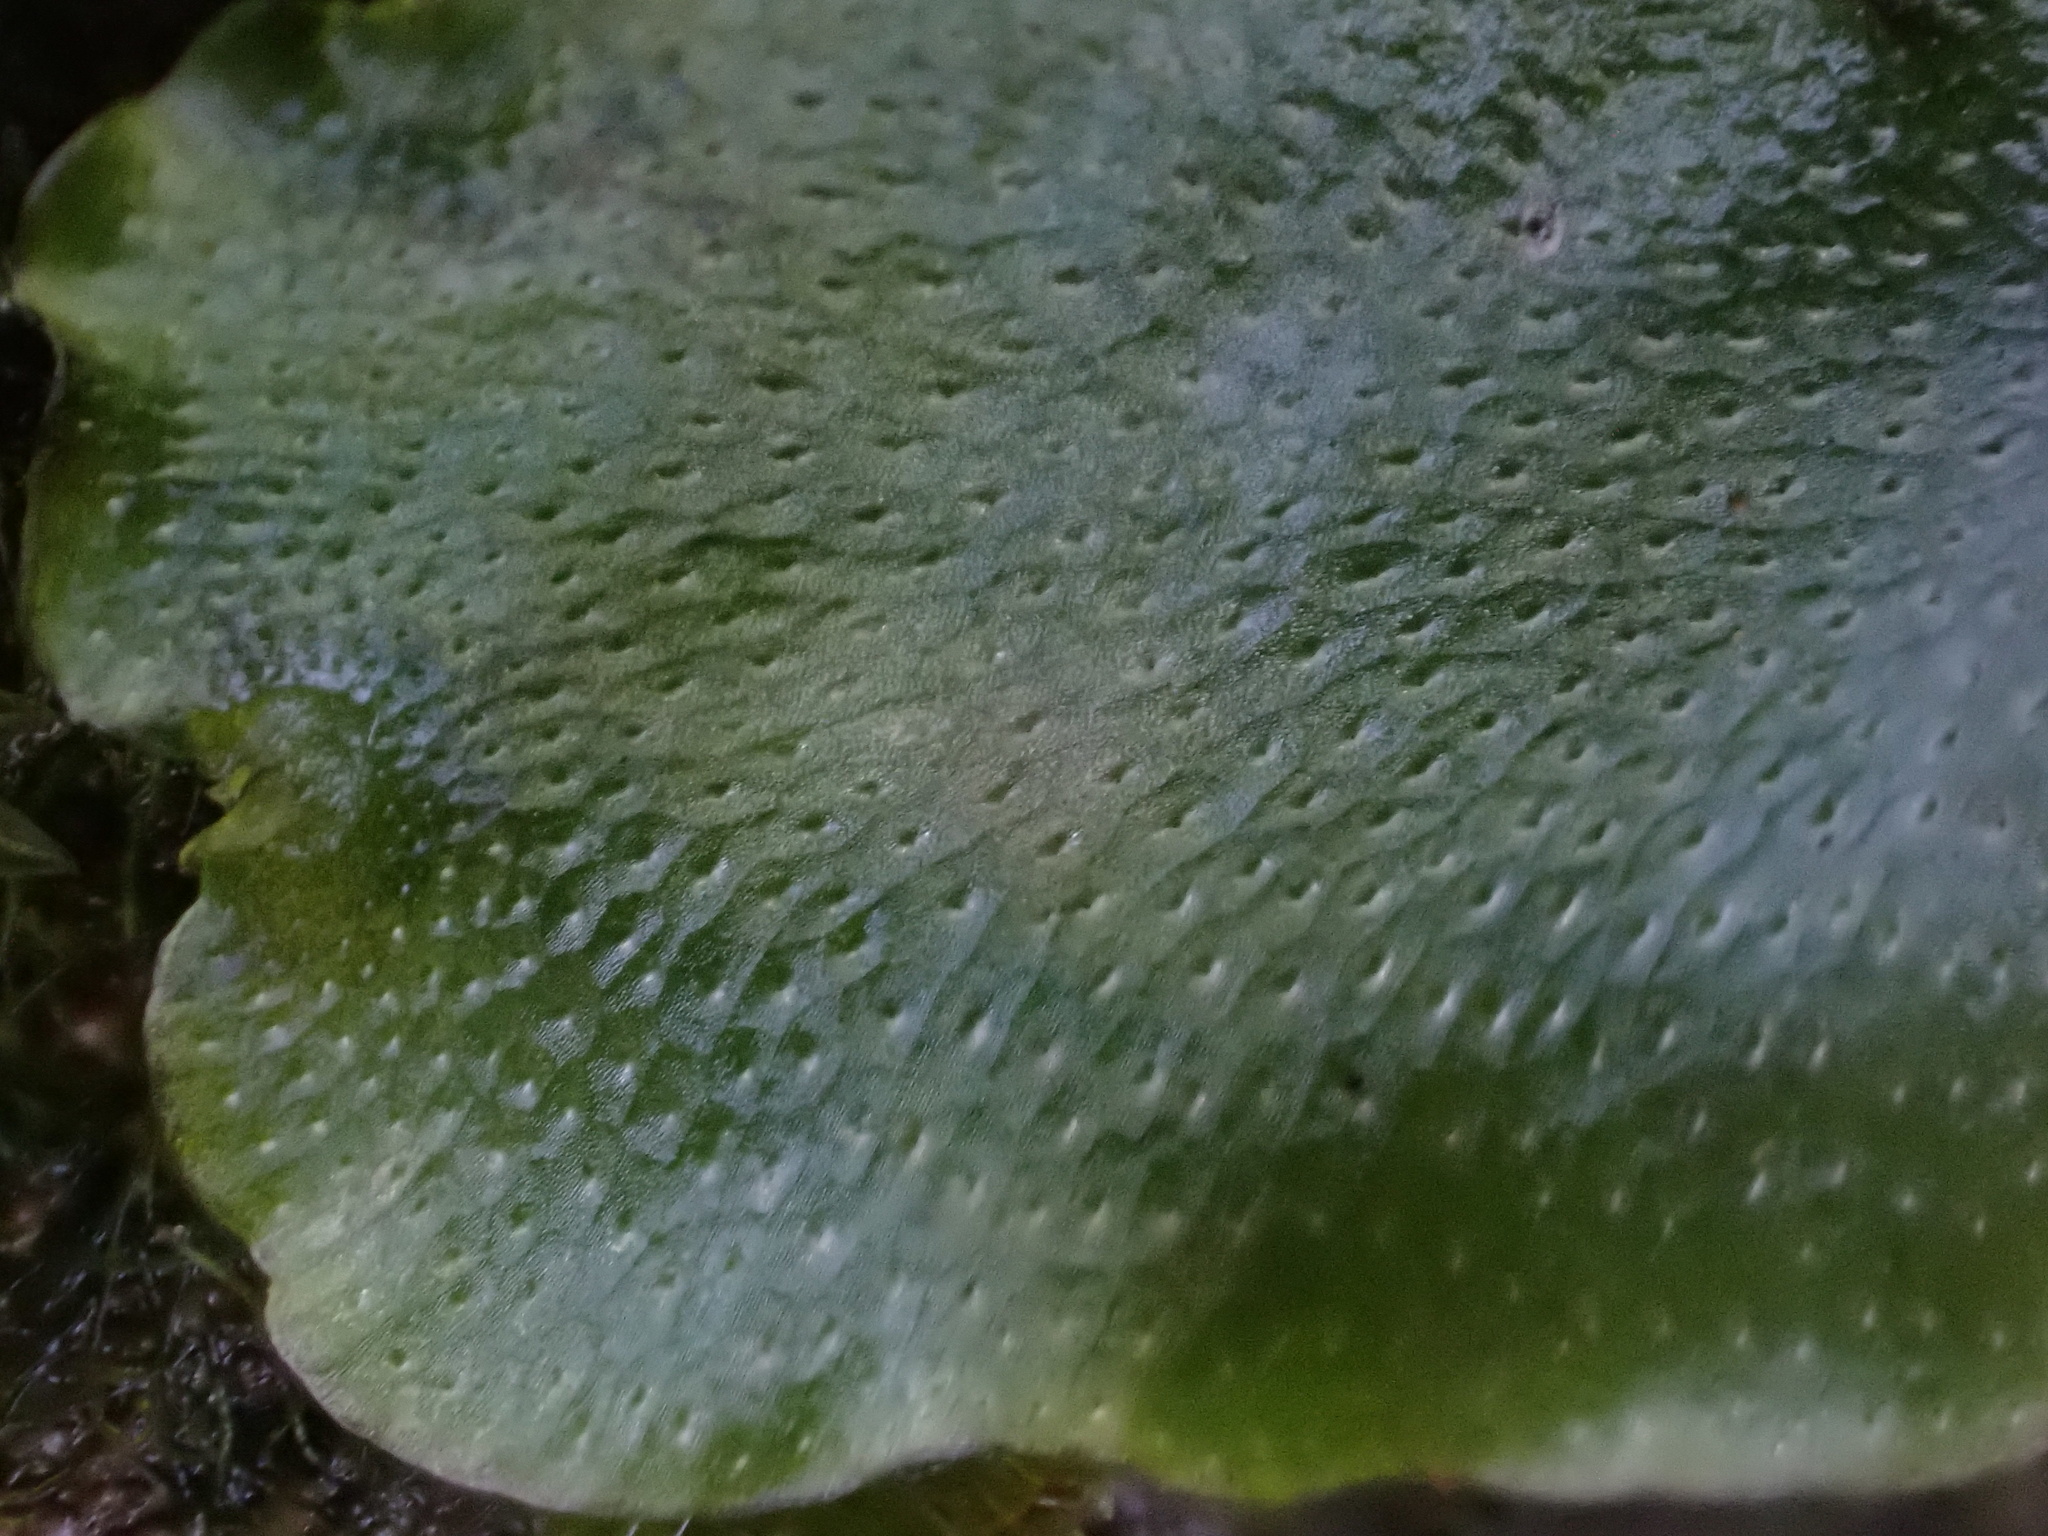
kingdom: Plantae
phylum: Marchantiophyta
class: Marchantiopsida
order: Lunulariales
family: Lunulariaceae
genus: Lunularia
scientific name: Lunularia cruciata
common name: Crescent-cup liverwort
